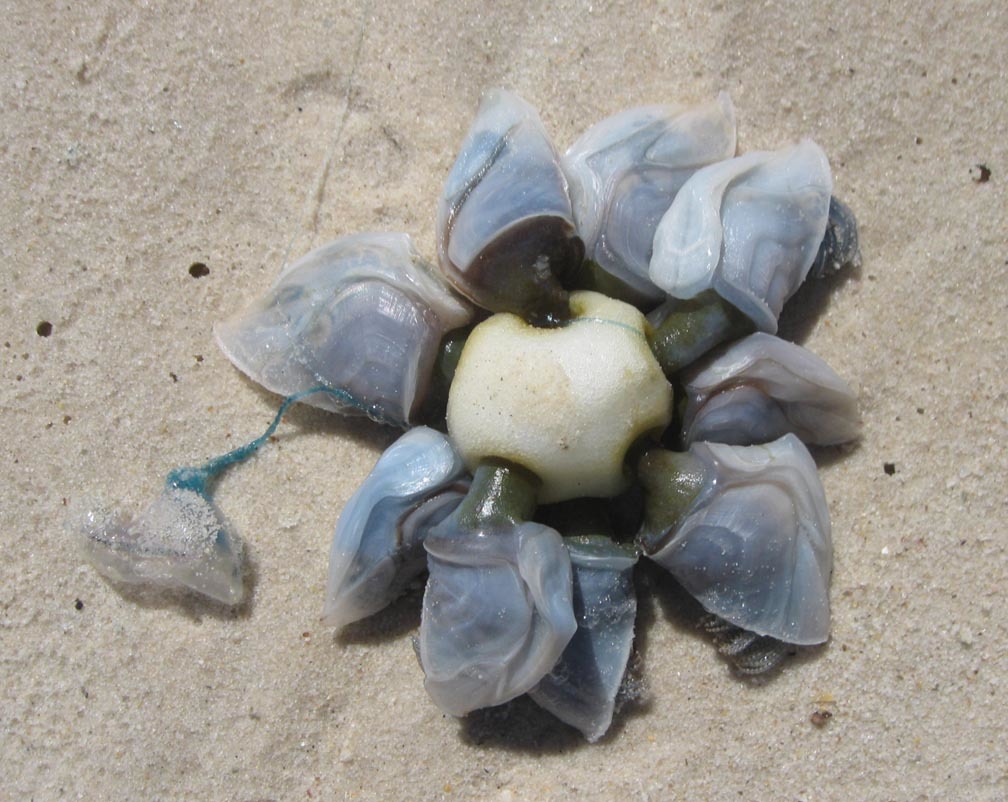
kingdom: Animalia
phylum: Arthropoda
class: Maxillopoda
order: Pedunculata
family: Lepadidae
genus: Dosima
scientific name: Dosima fascicularis
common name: Buoy barnacle
